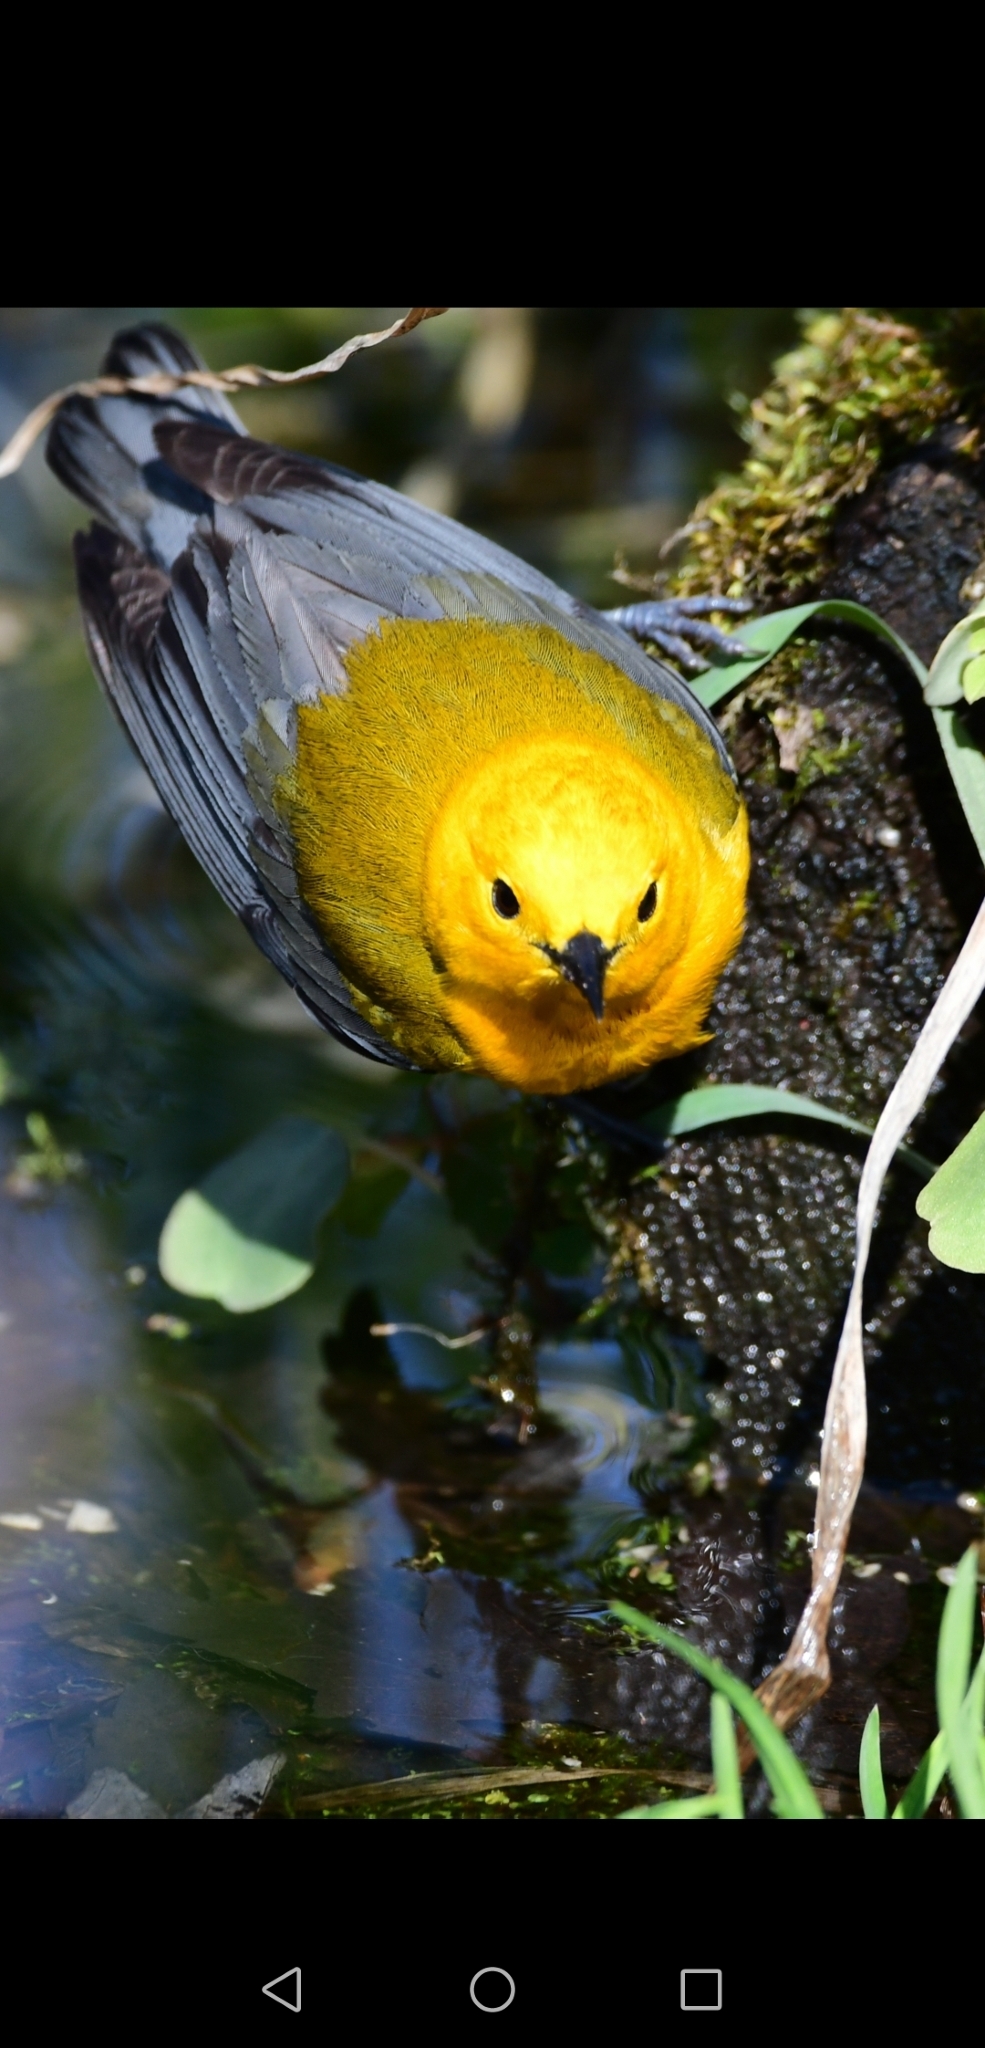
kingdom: Animalia
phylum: Chordata
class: Aves
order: Passeriformes
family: Parulidae
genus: Protonotaria
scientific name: Protonotaria citrea
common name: Prothonotary warbler
